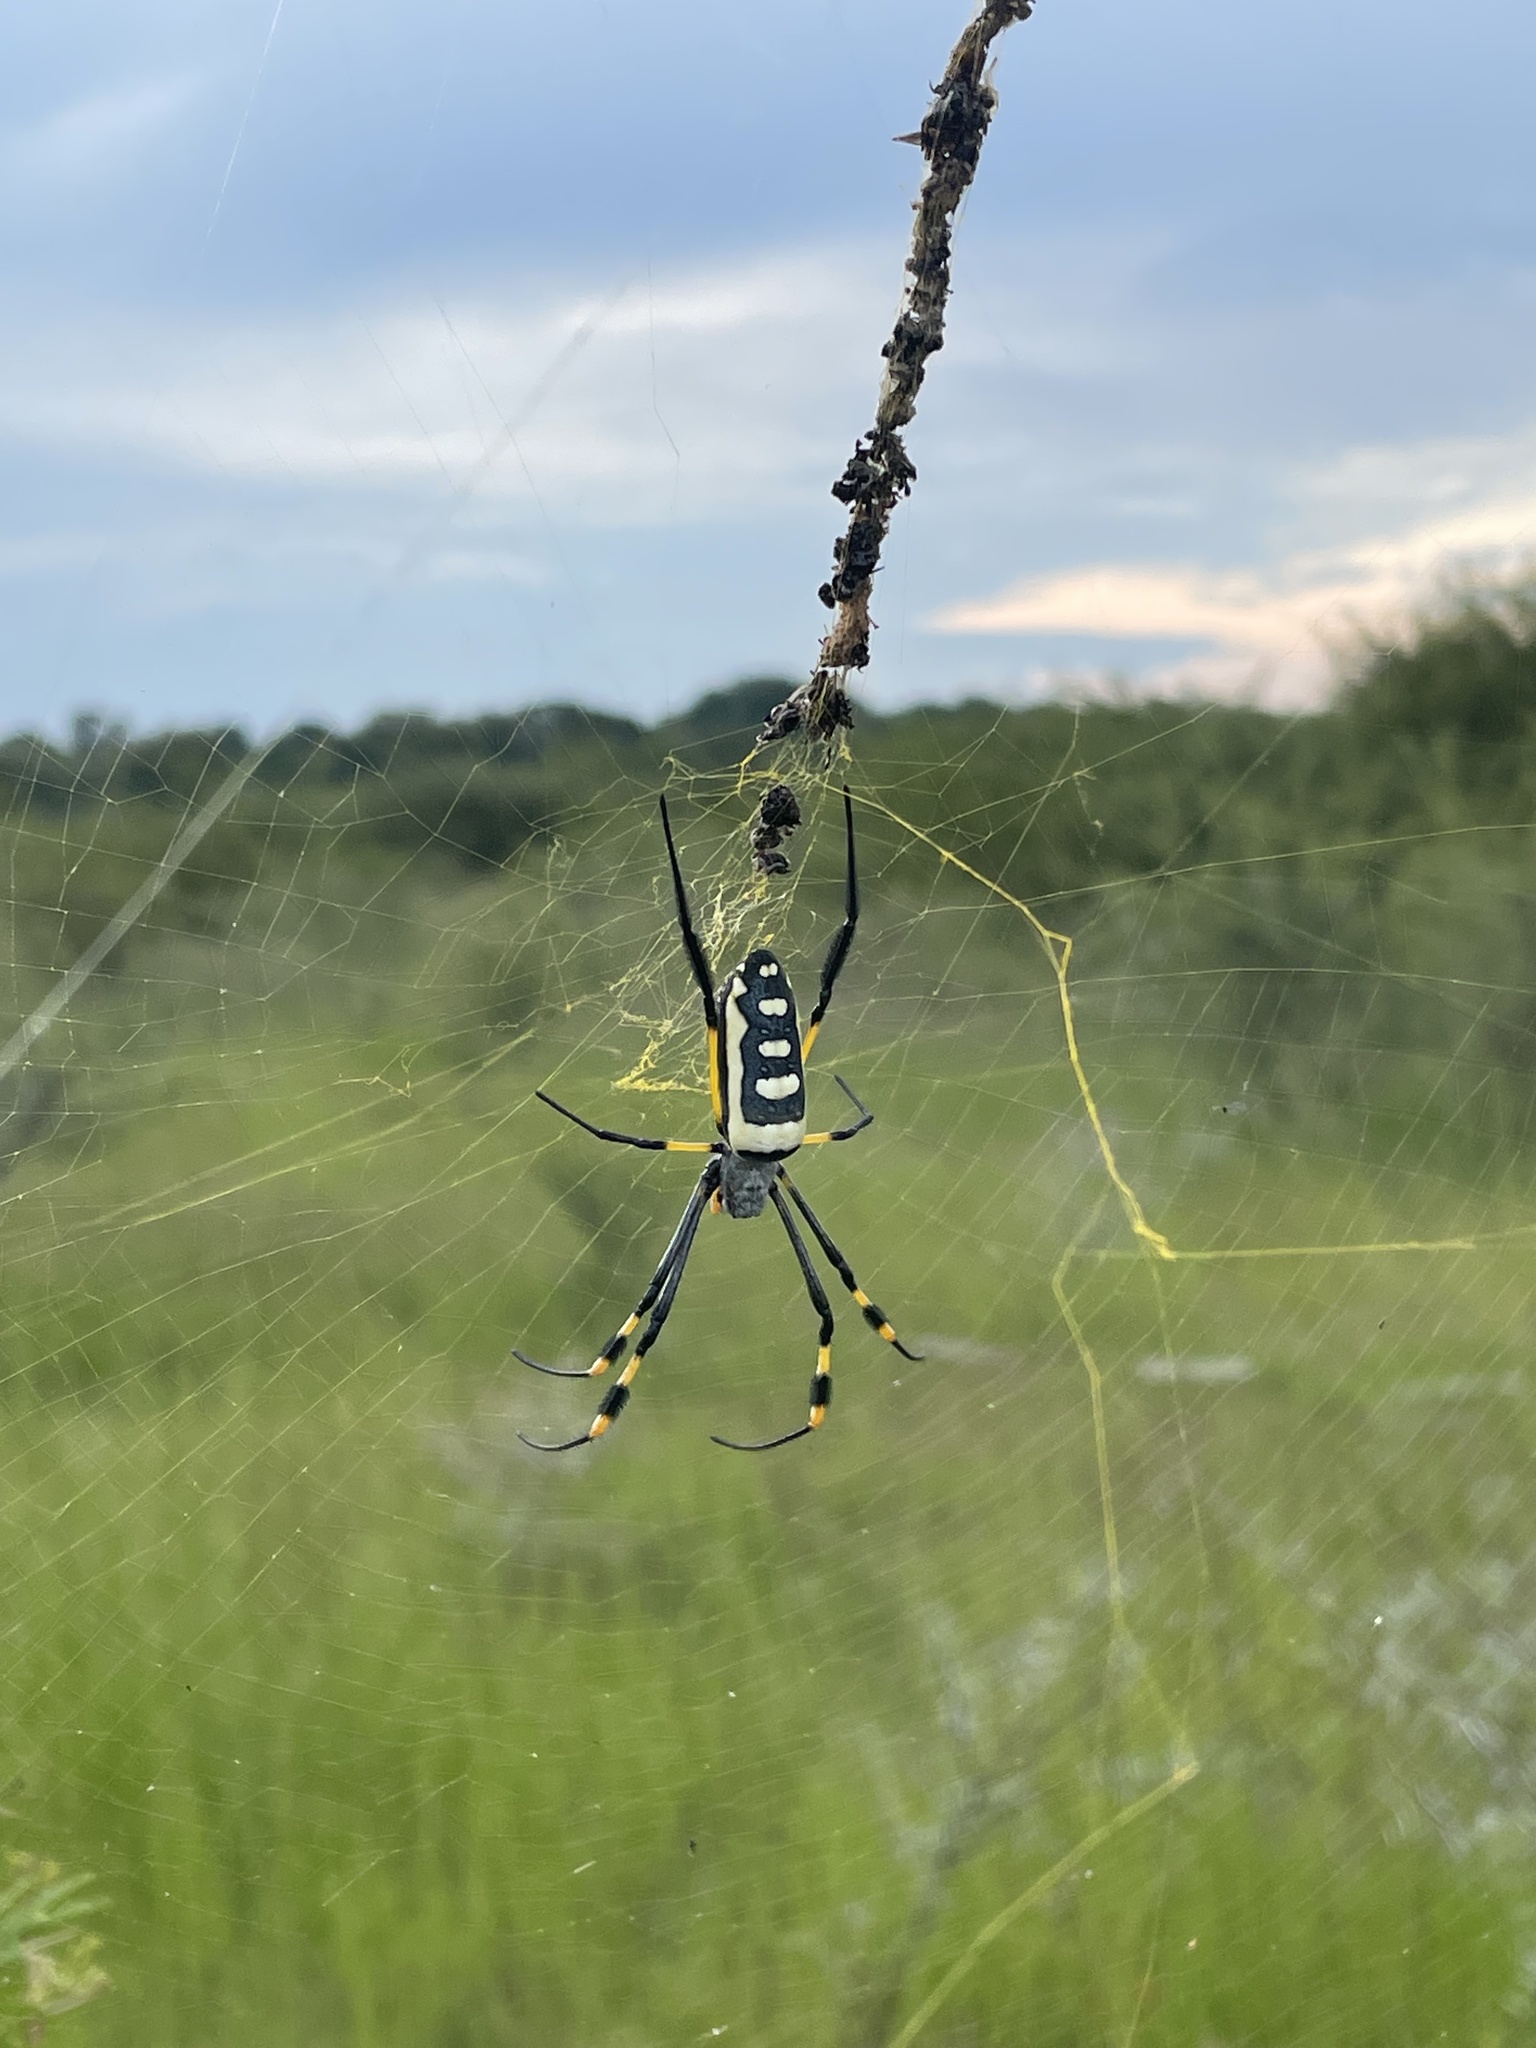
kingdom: Animalia
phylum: Arthropoda
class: Arachnida
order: Araneae
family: Araneidae
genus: Trichonephila
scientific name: Trichonephila senegalensis
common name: Banded golden orb weaver
